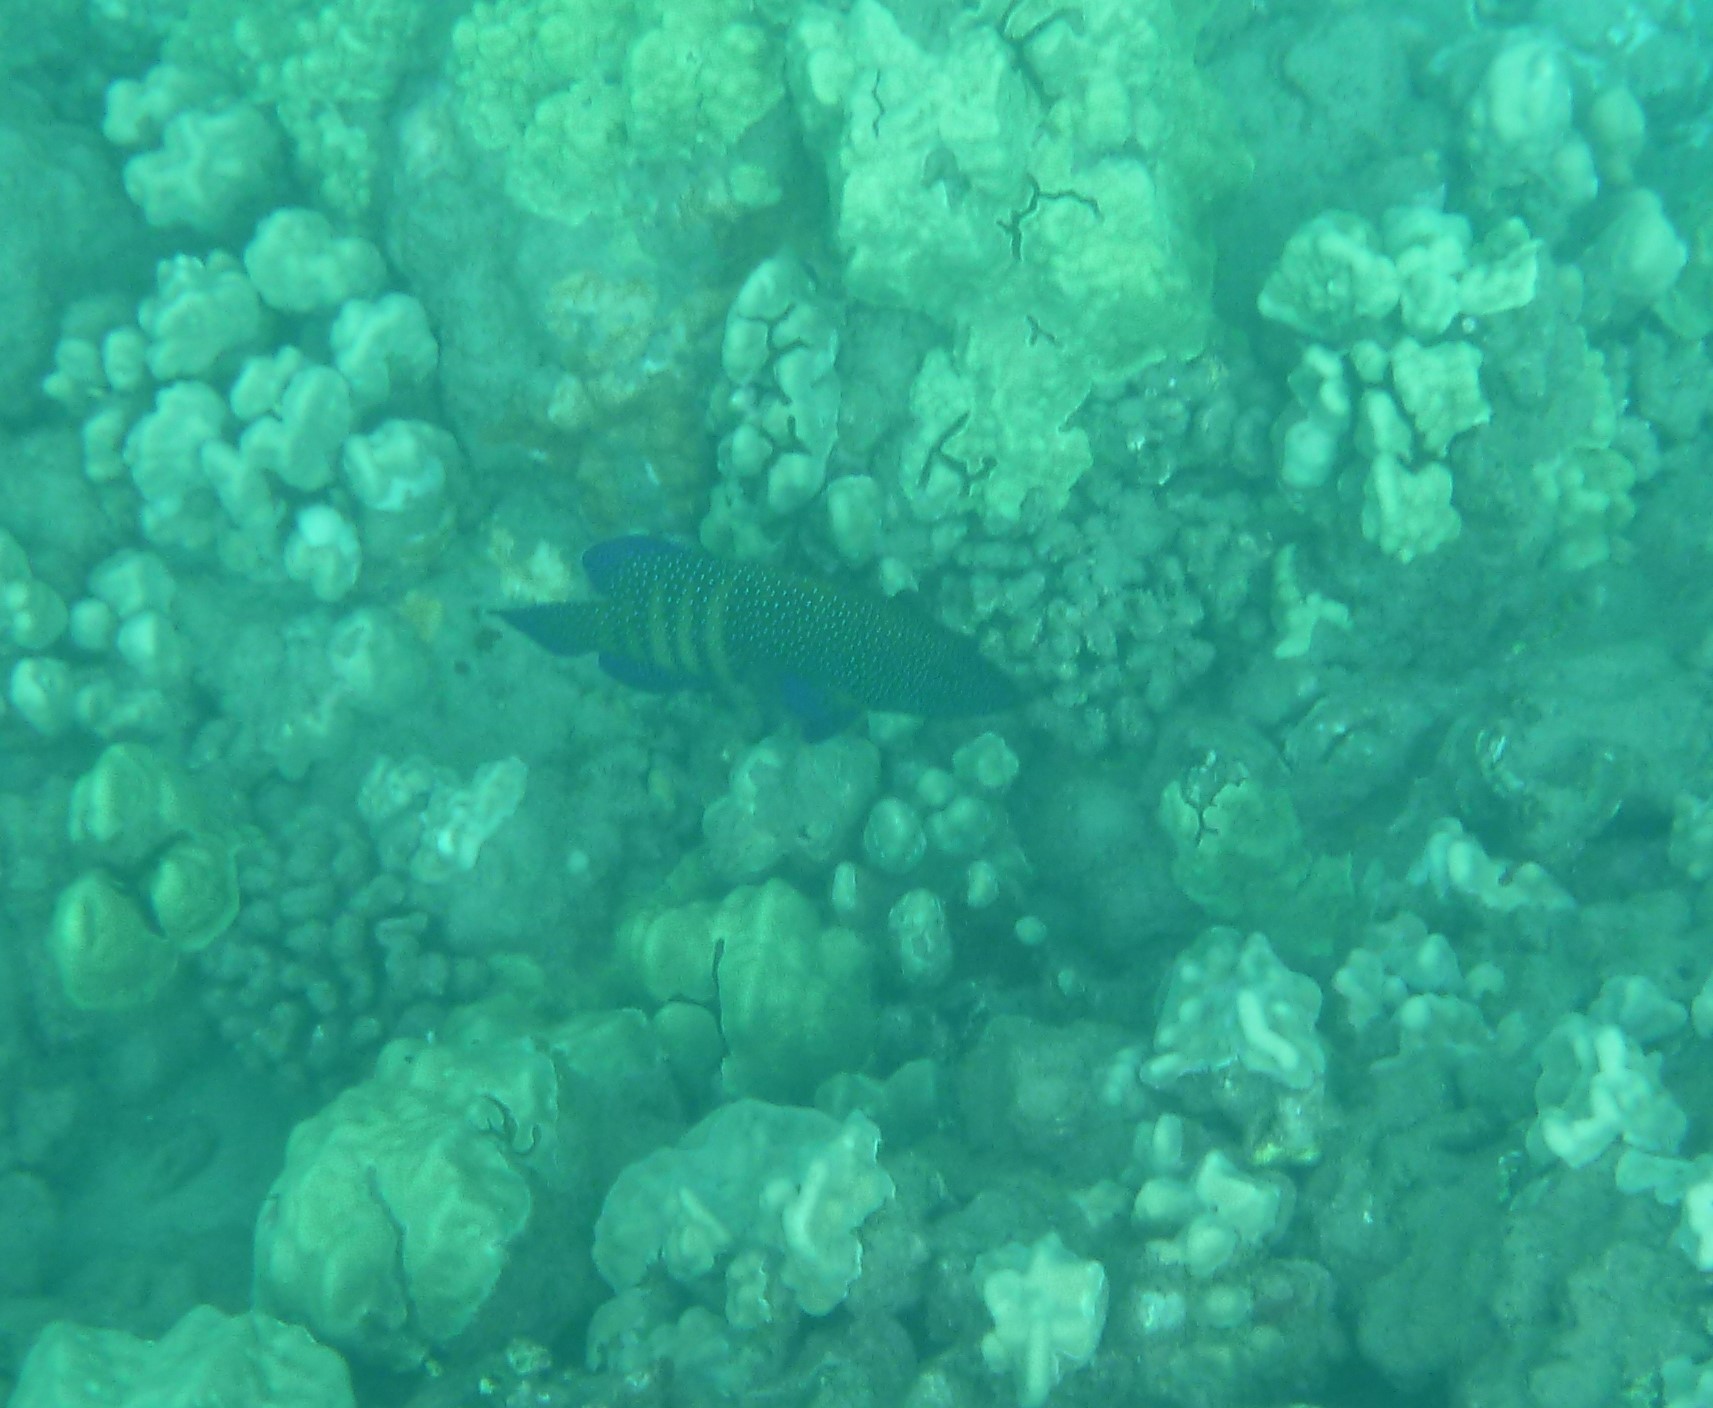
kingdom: Animalia
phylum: Chordata
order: Perciformes
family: Serranidae
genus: Cephalopholis
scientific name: Cephalopholis argus
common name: Peacock grouper
